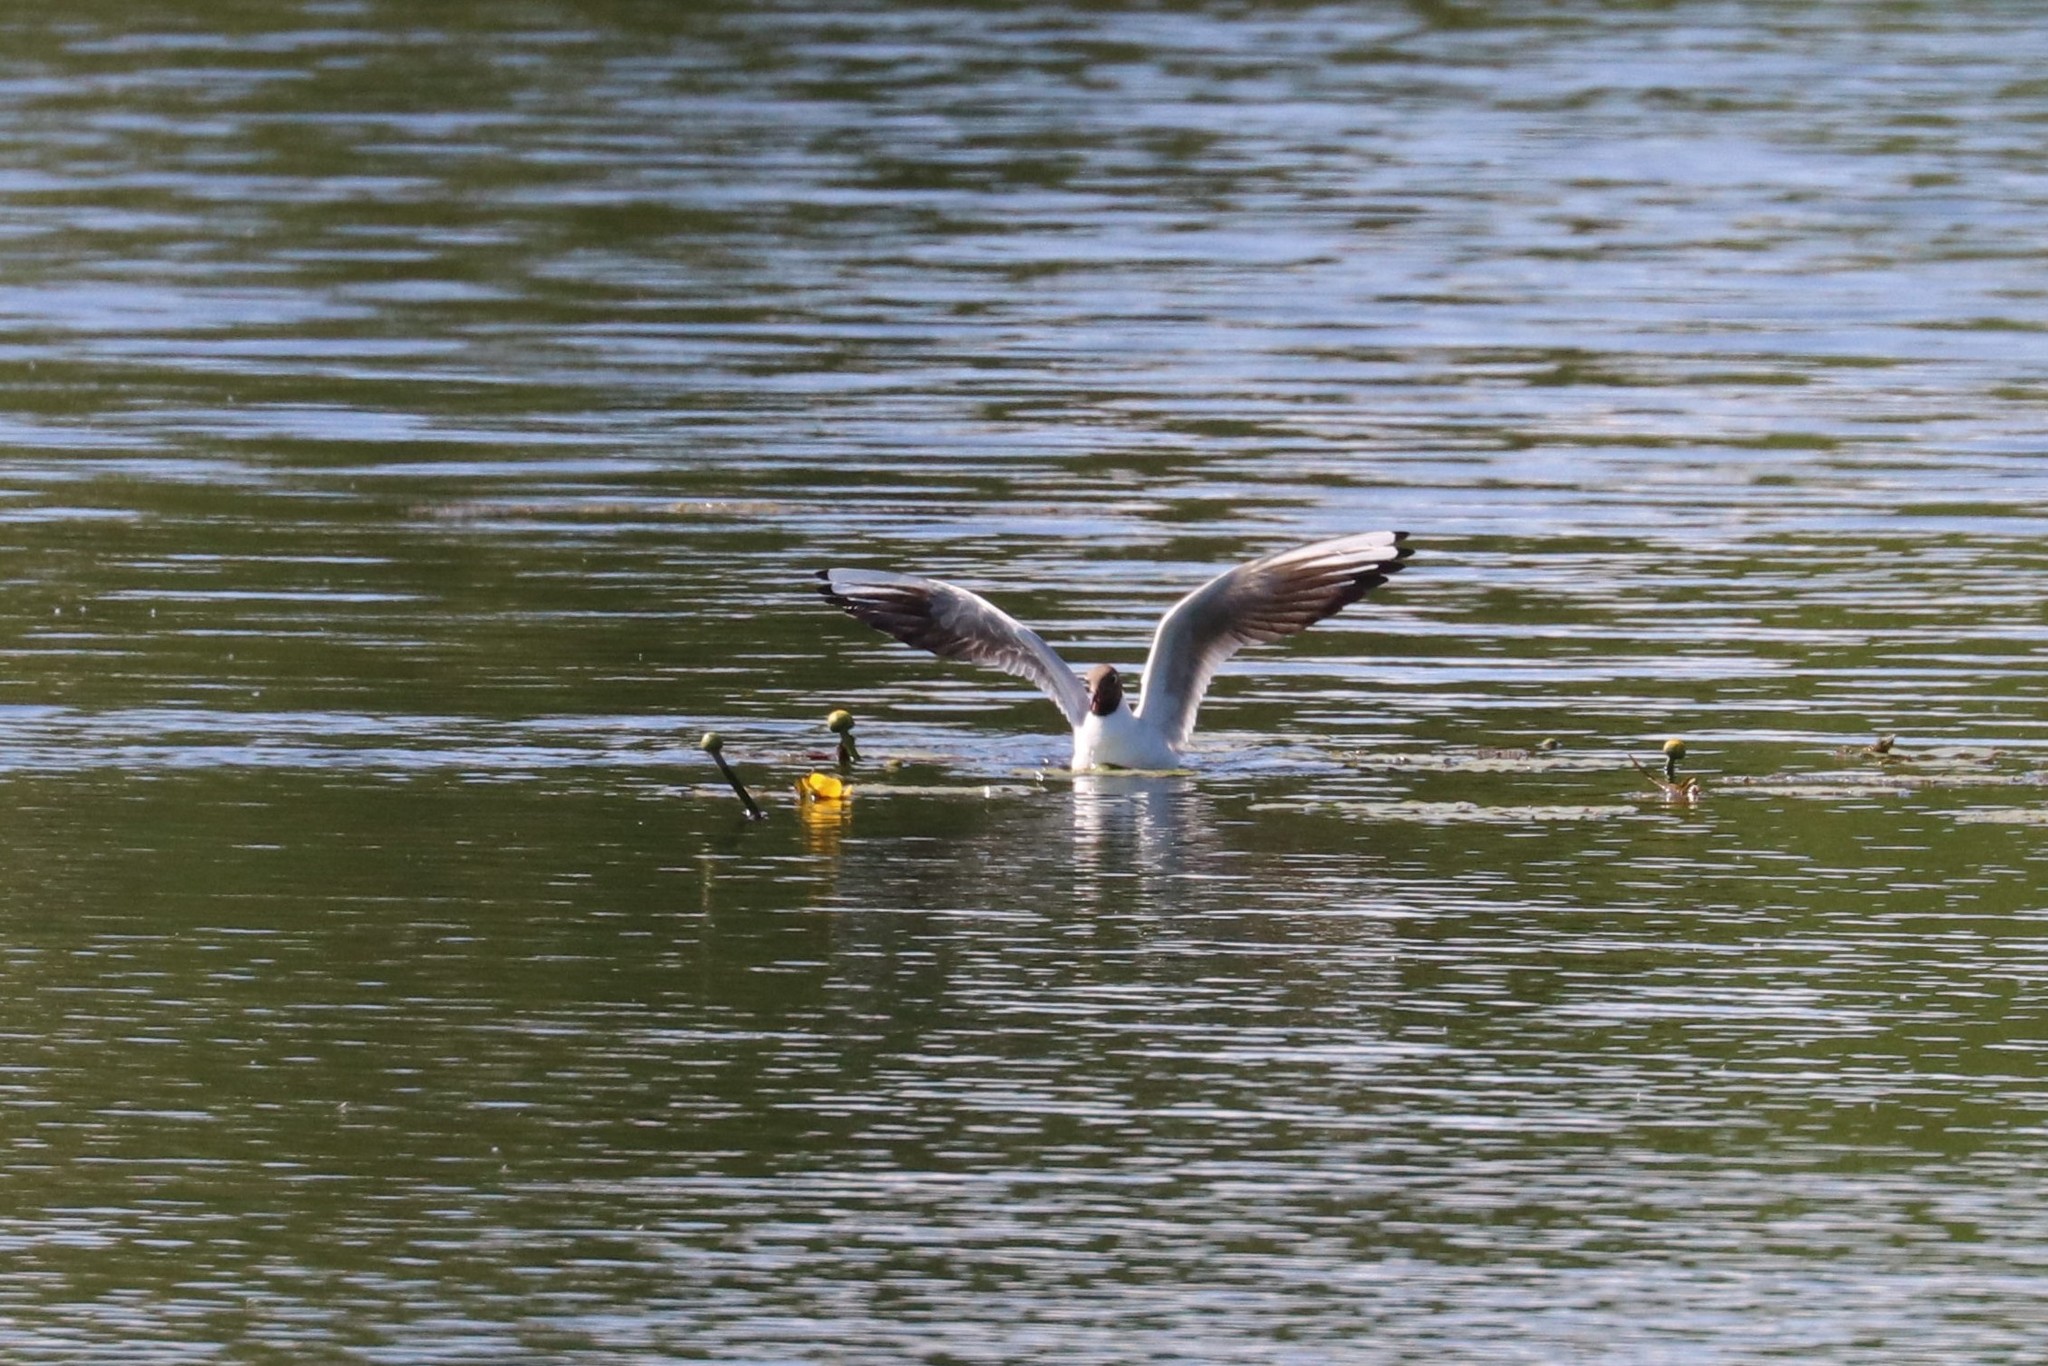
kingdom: Animalia
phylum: Chordata
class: Aves
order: Charadriiformes
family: Laridae
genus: Chroicocephalus
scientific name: Chroicocephalus ridibundus
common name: Black-headed gull
